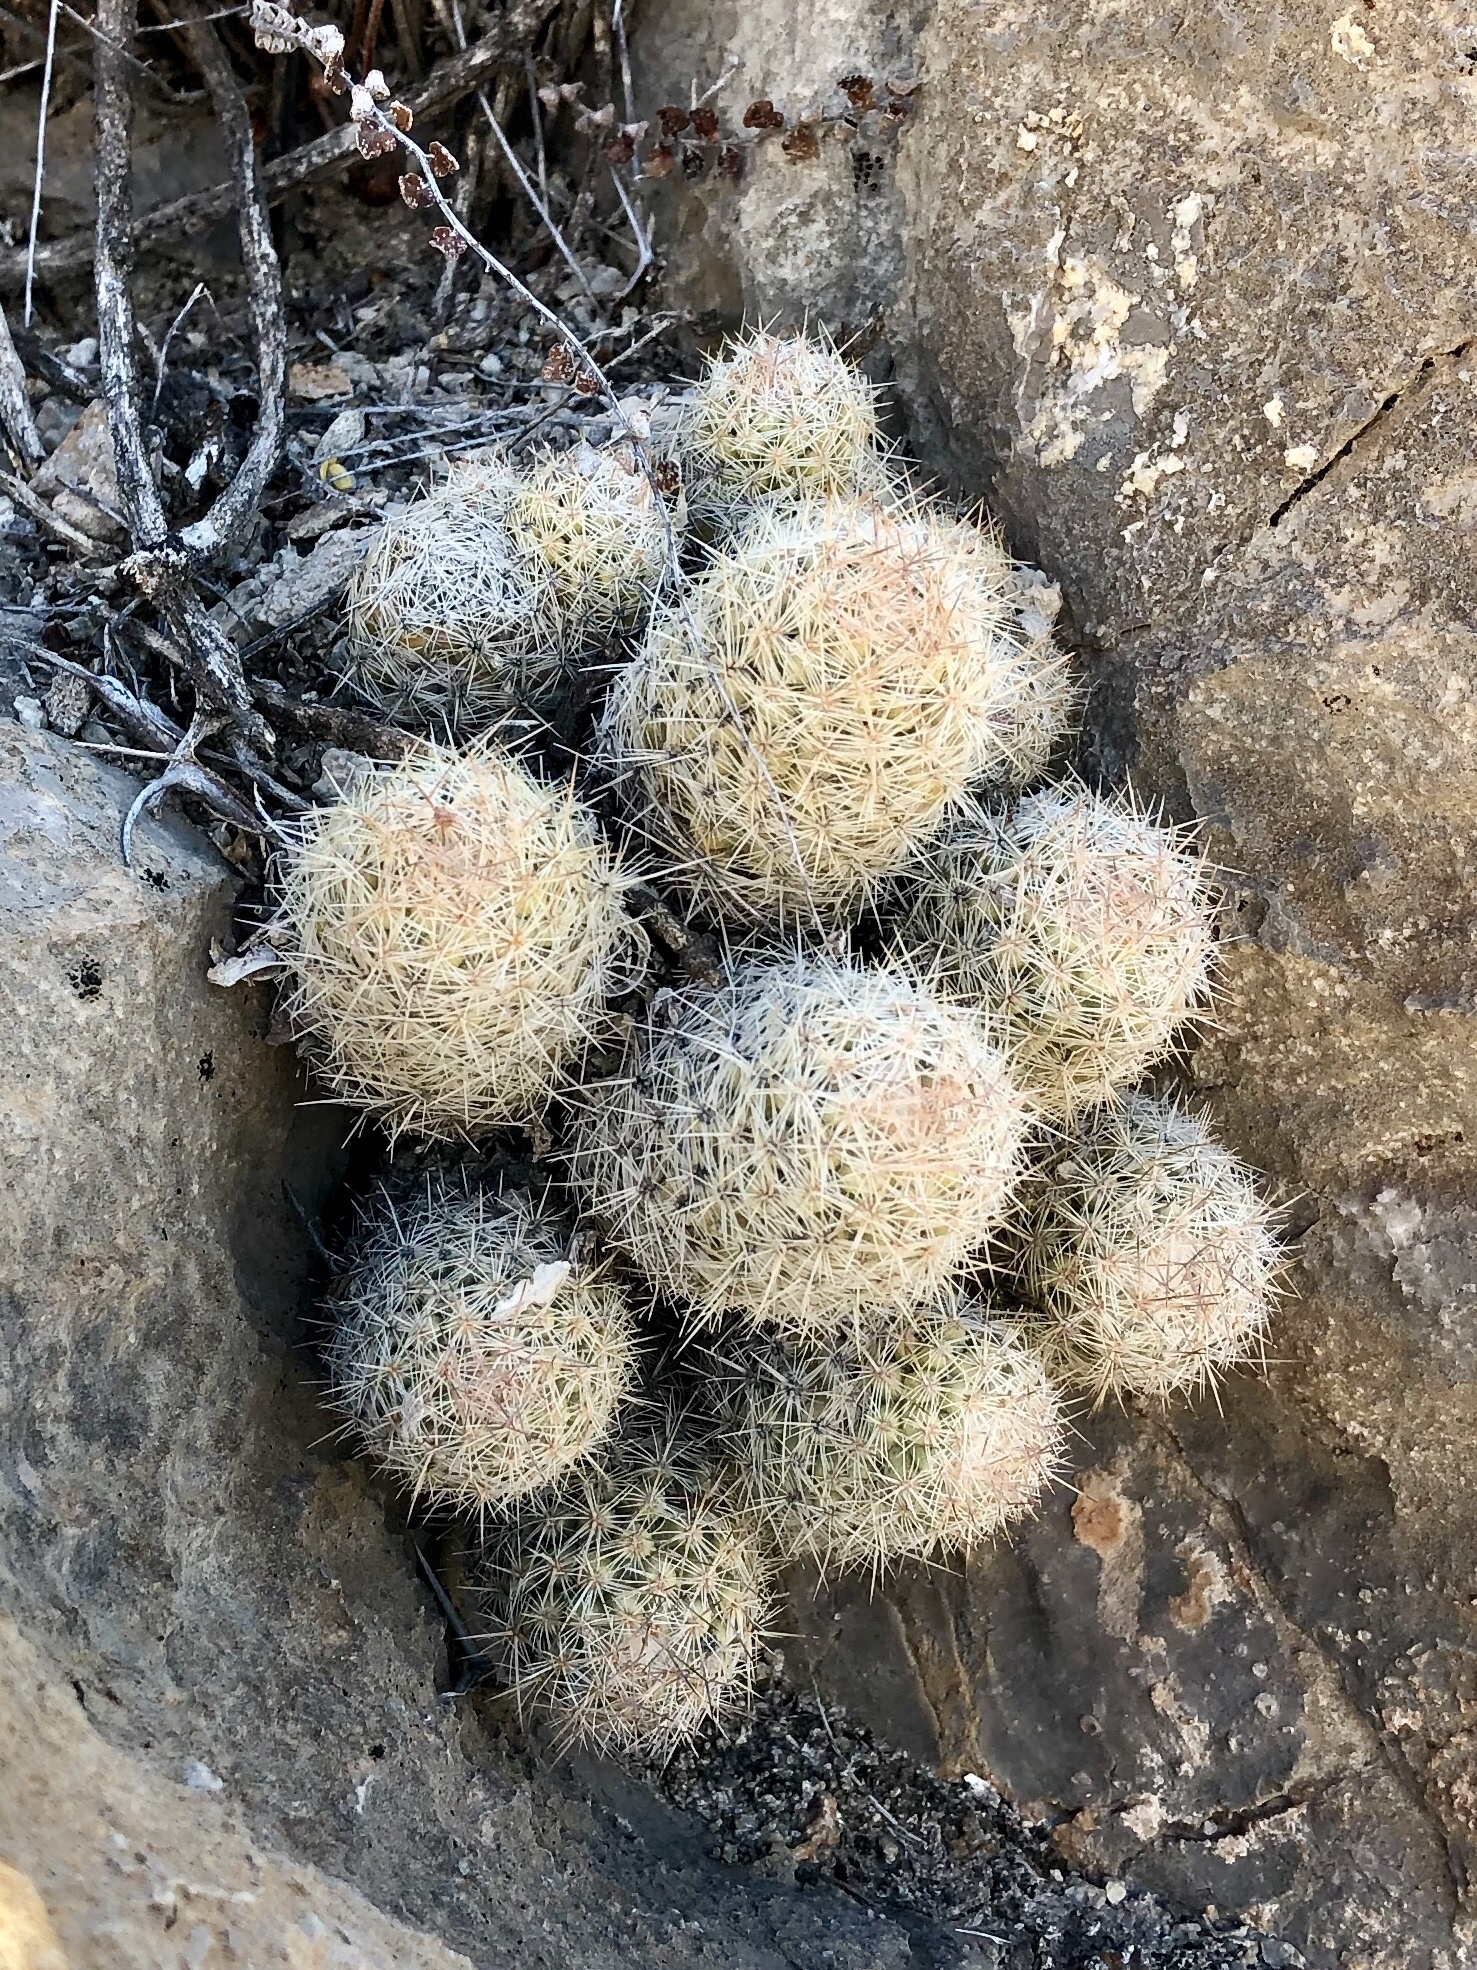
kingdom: Plantae
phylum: Tracheophyta
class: Magnoliopsida
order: Caryophyllales
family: Cactaceae
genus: Pelecyphora
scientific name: Pelecyphora tuberculosa
